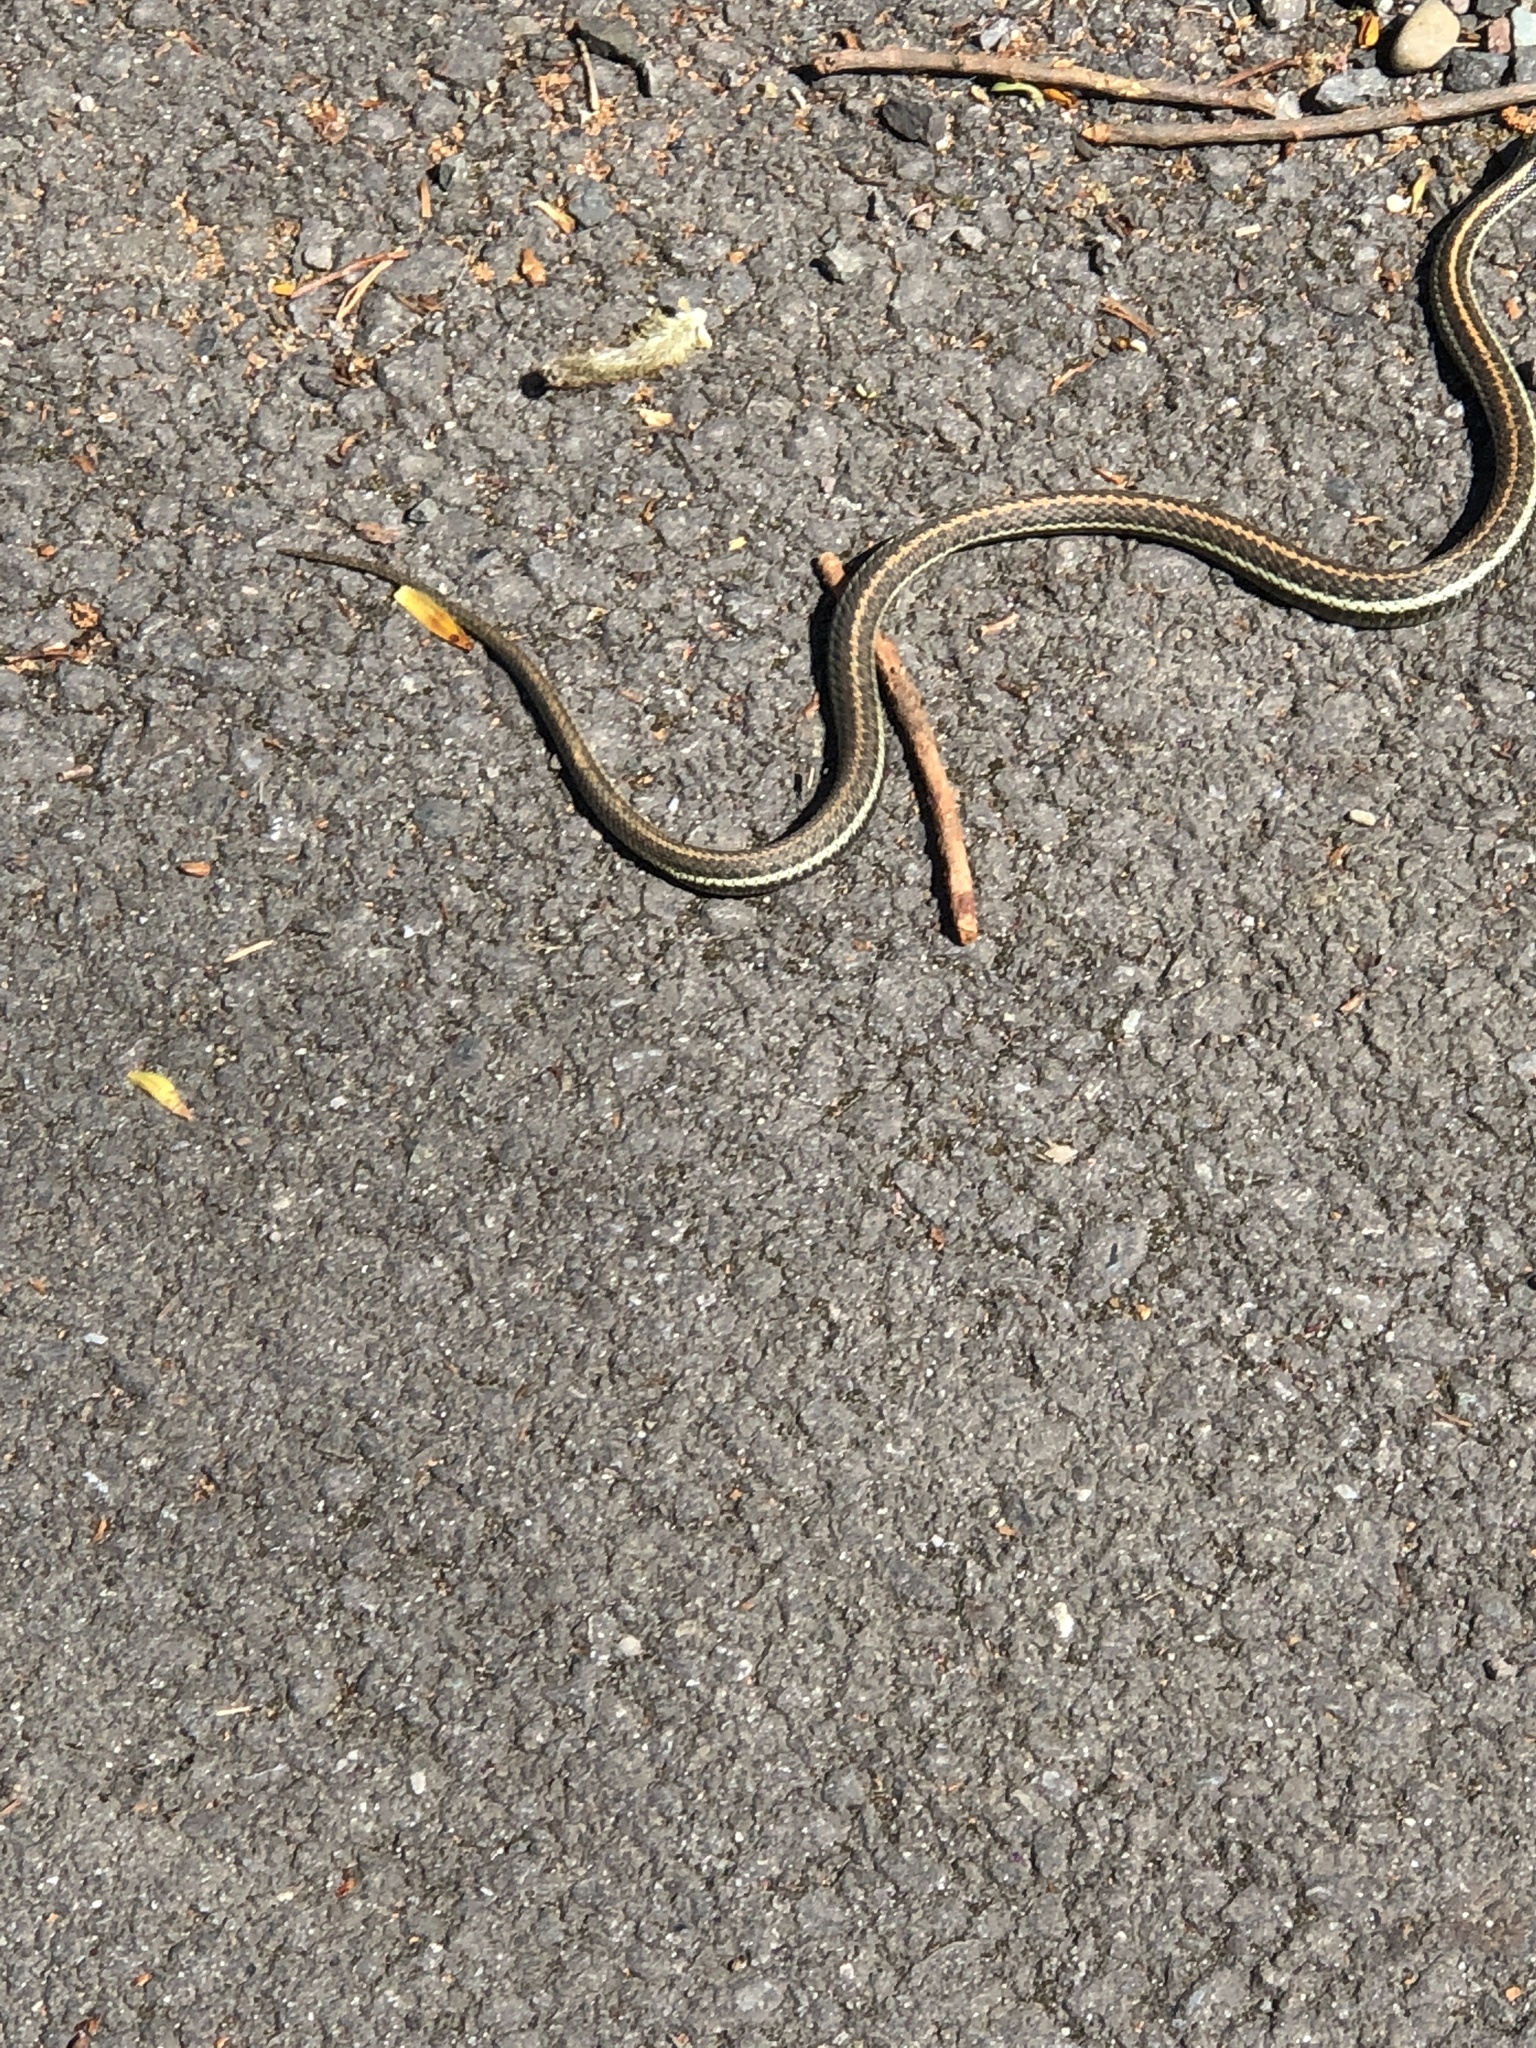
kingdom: Animalia
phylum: Chordata
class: Squamata
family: Colubridae
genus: Thamnophis
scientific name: Thamnophis ordinoides
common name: Northwestern garter snake
